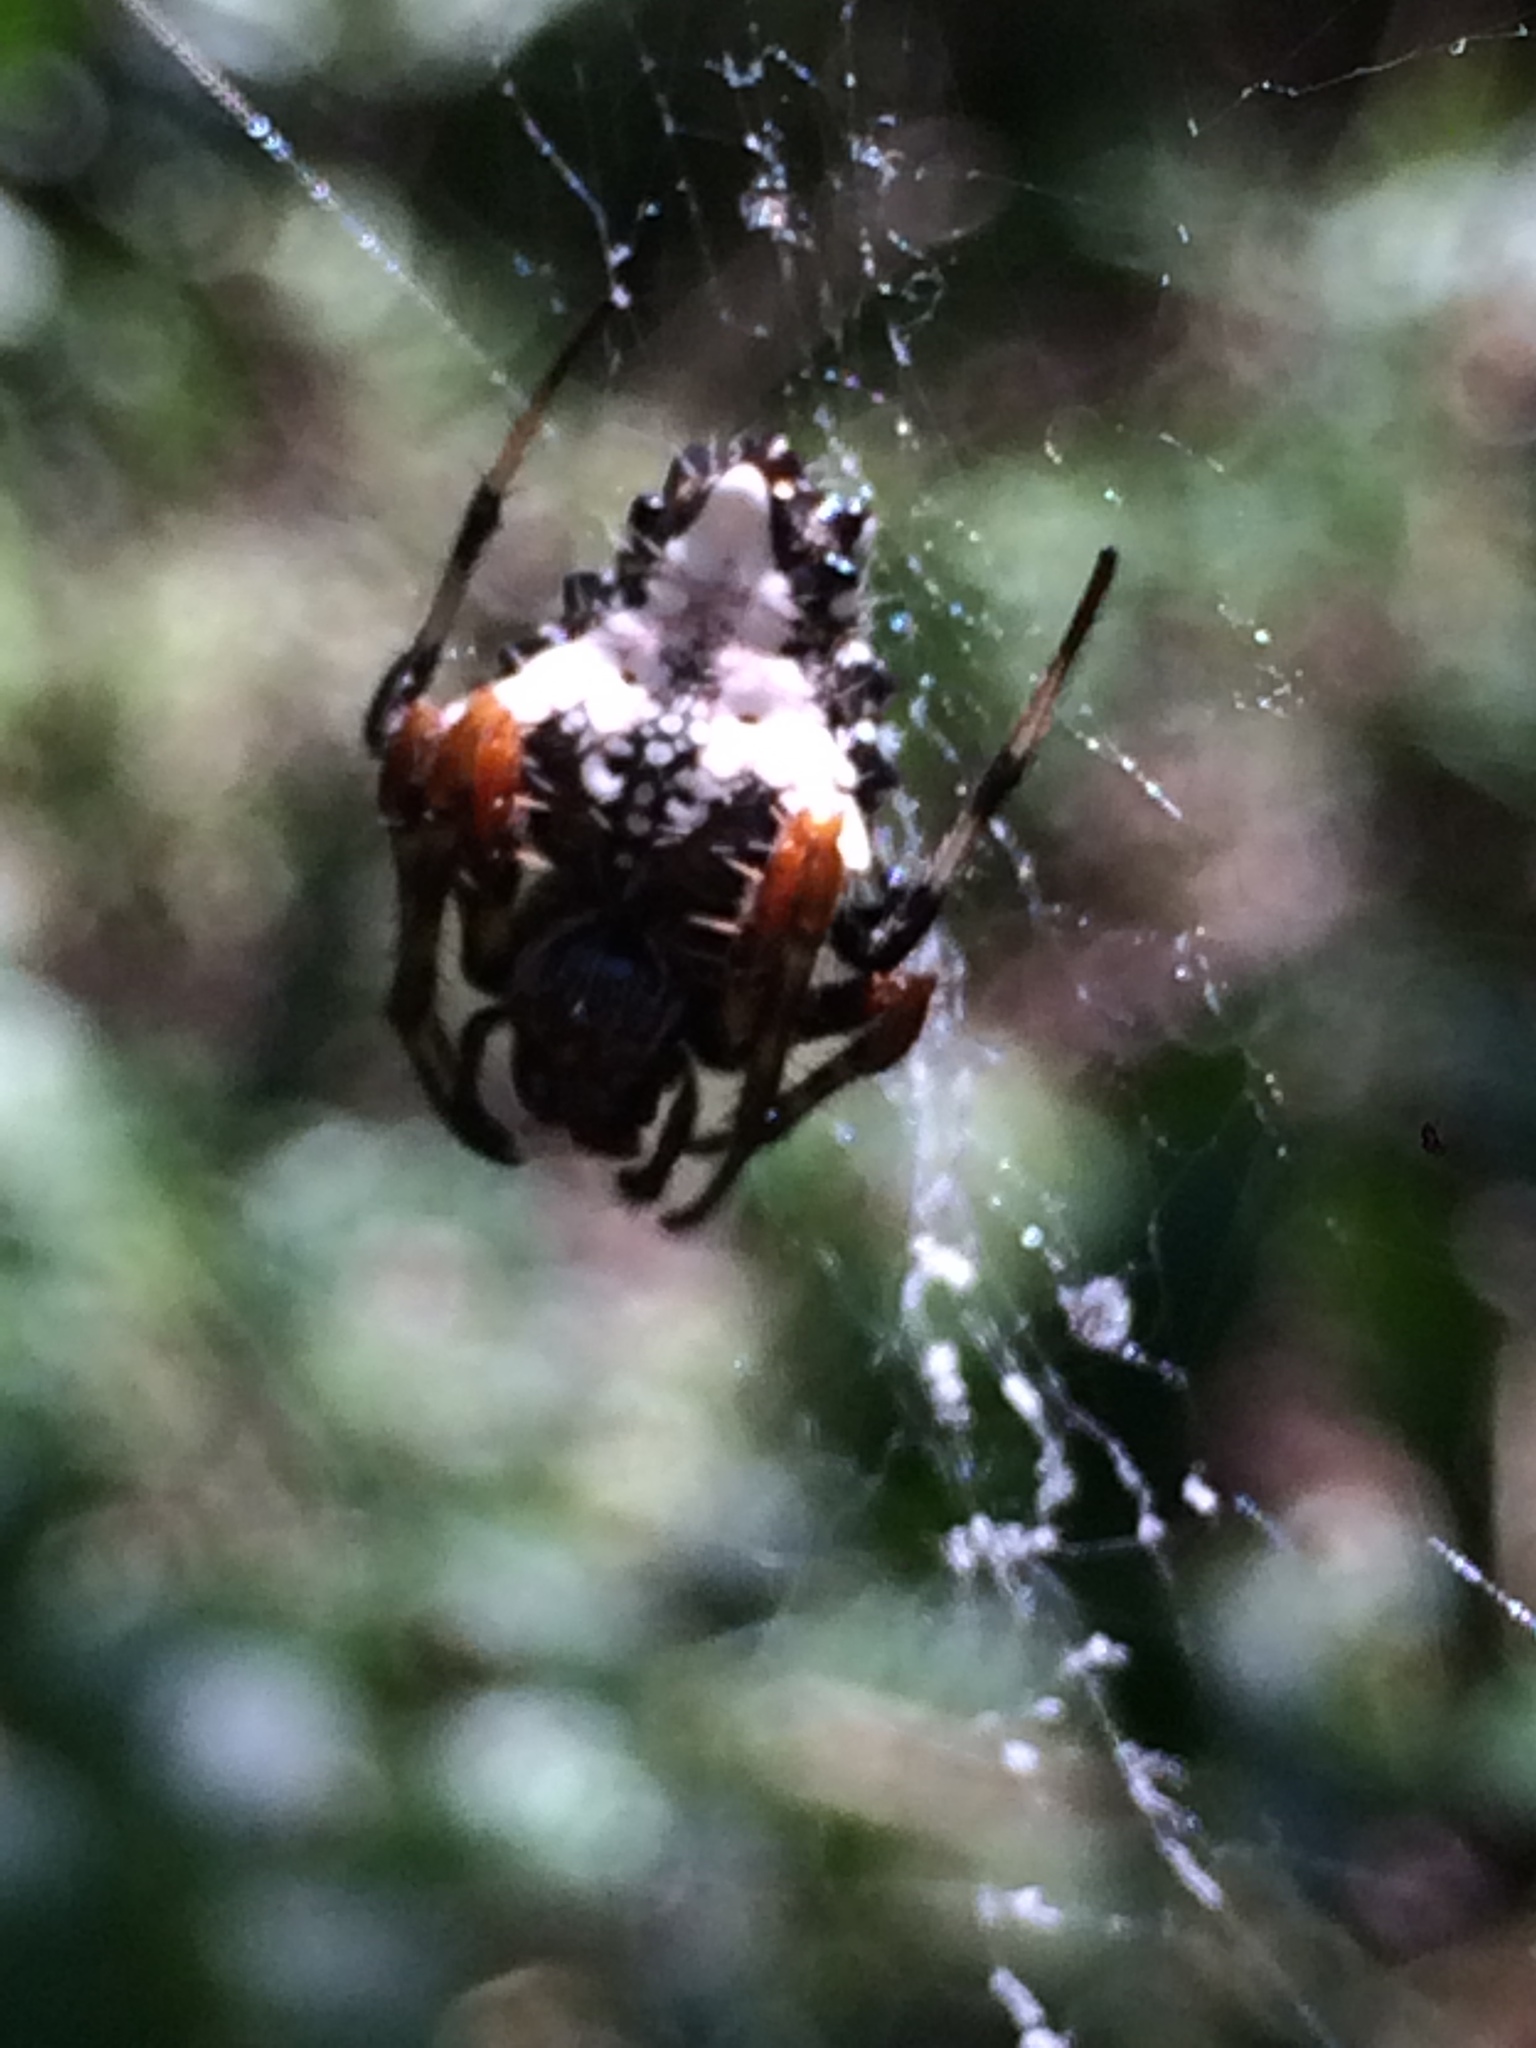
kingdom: Animalia
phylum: Arthropoda
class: Arachnida
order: Araneae
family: Araneidae
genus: Verrucosa
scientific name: Verrucosa meridionalis
